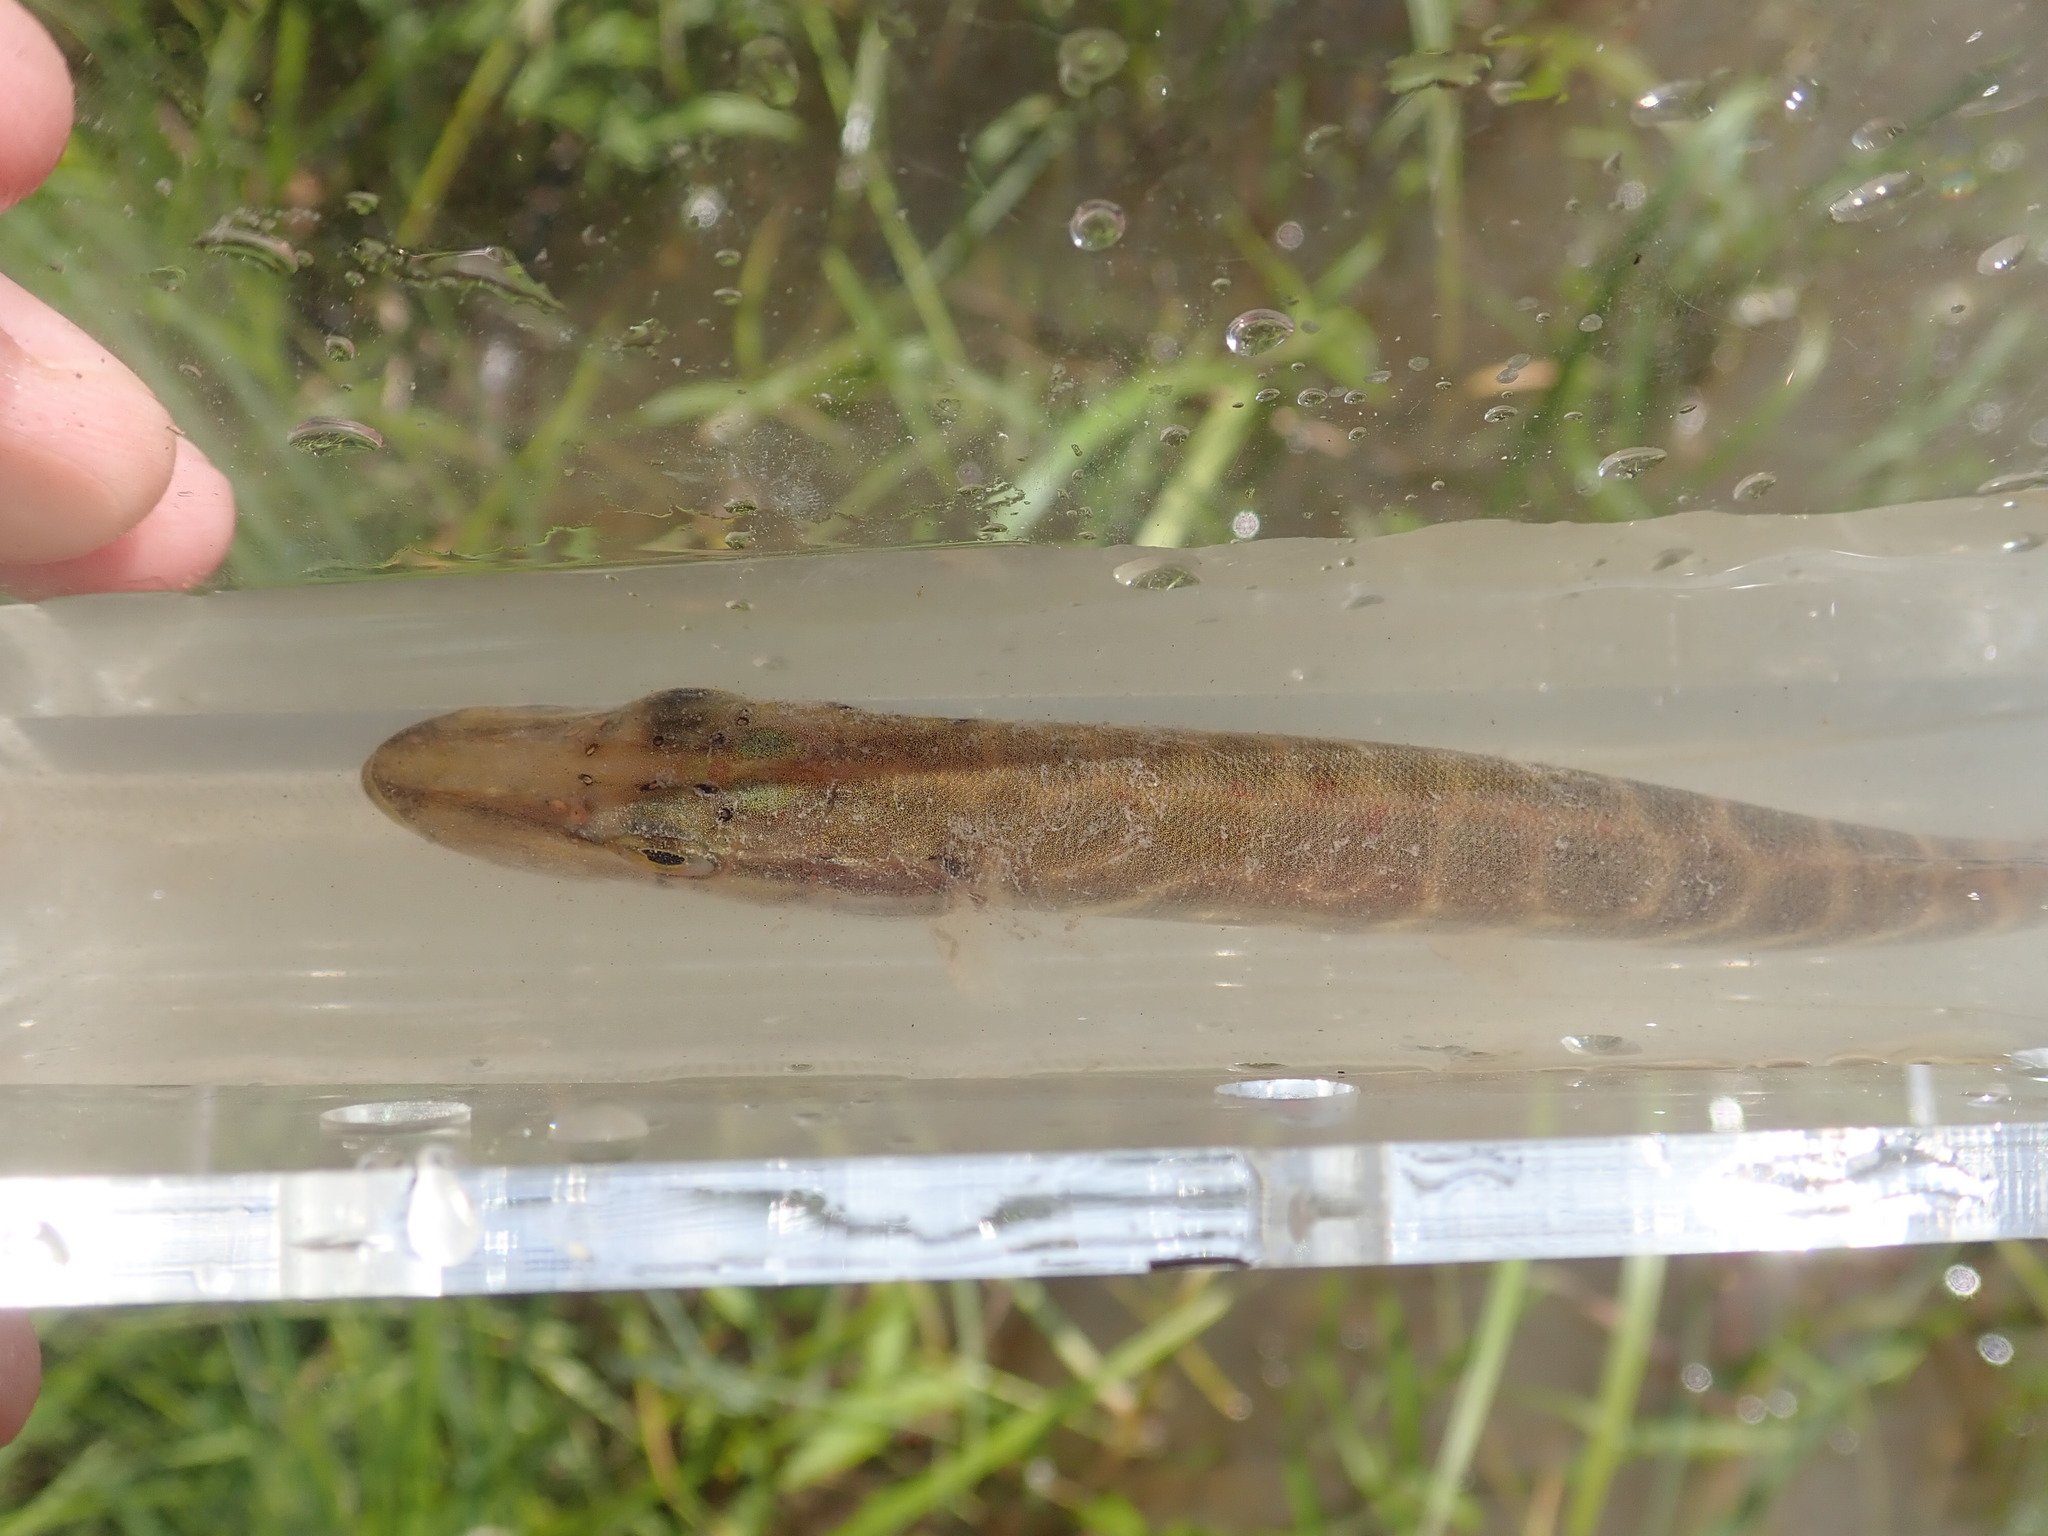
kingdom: Animalia
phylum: Chordata
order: Esociformes
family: Esocidae
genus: Esox
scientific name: Esox lucius
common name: Northern pike
